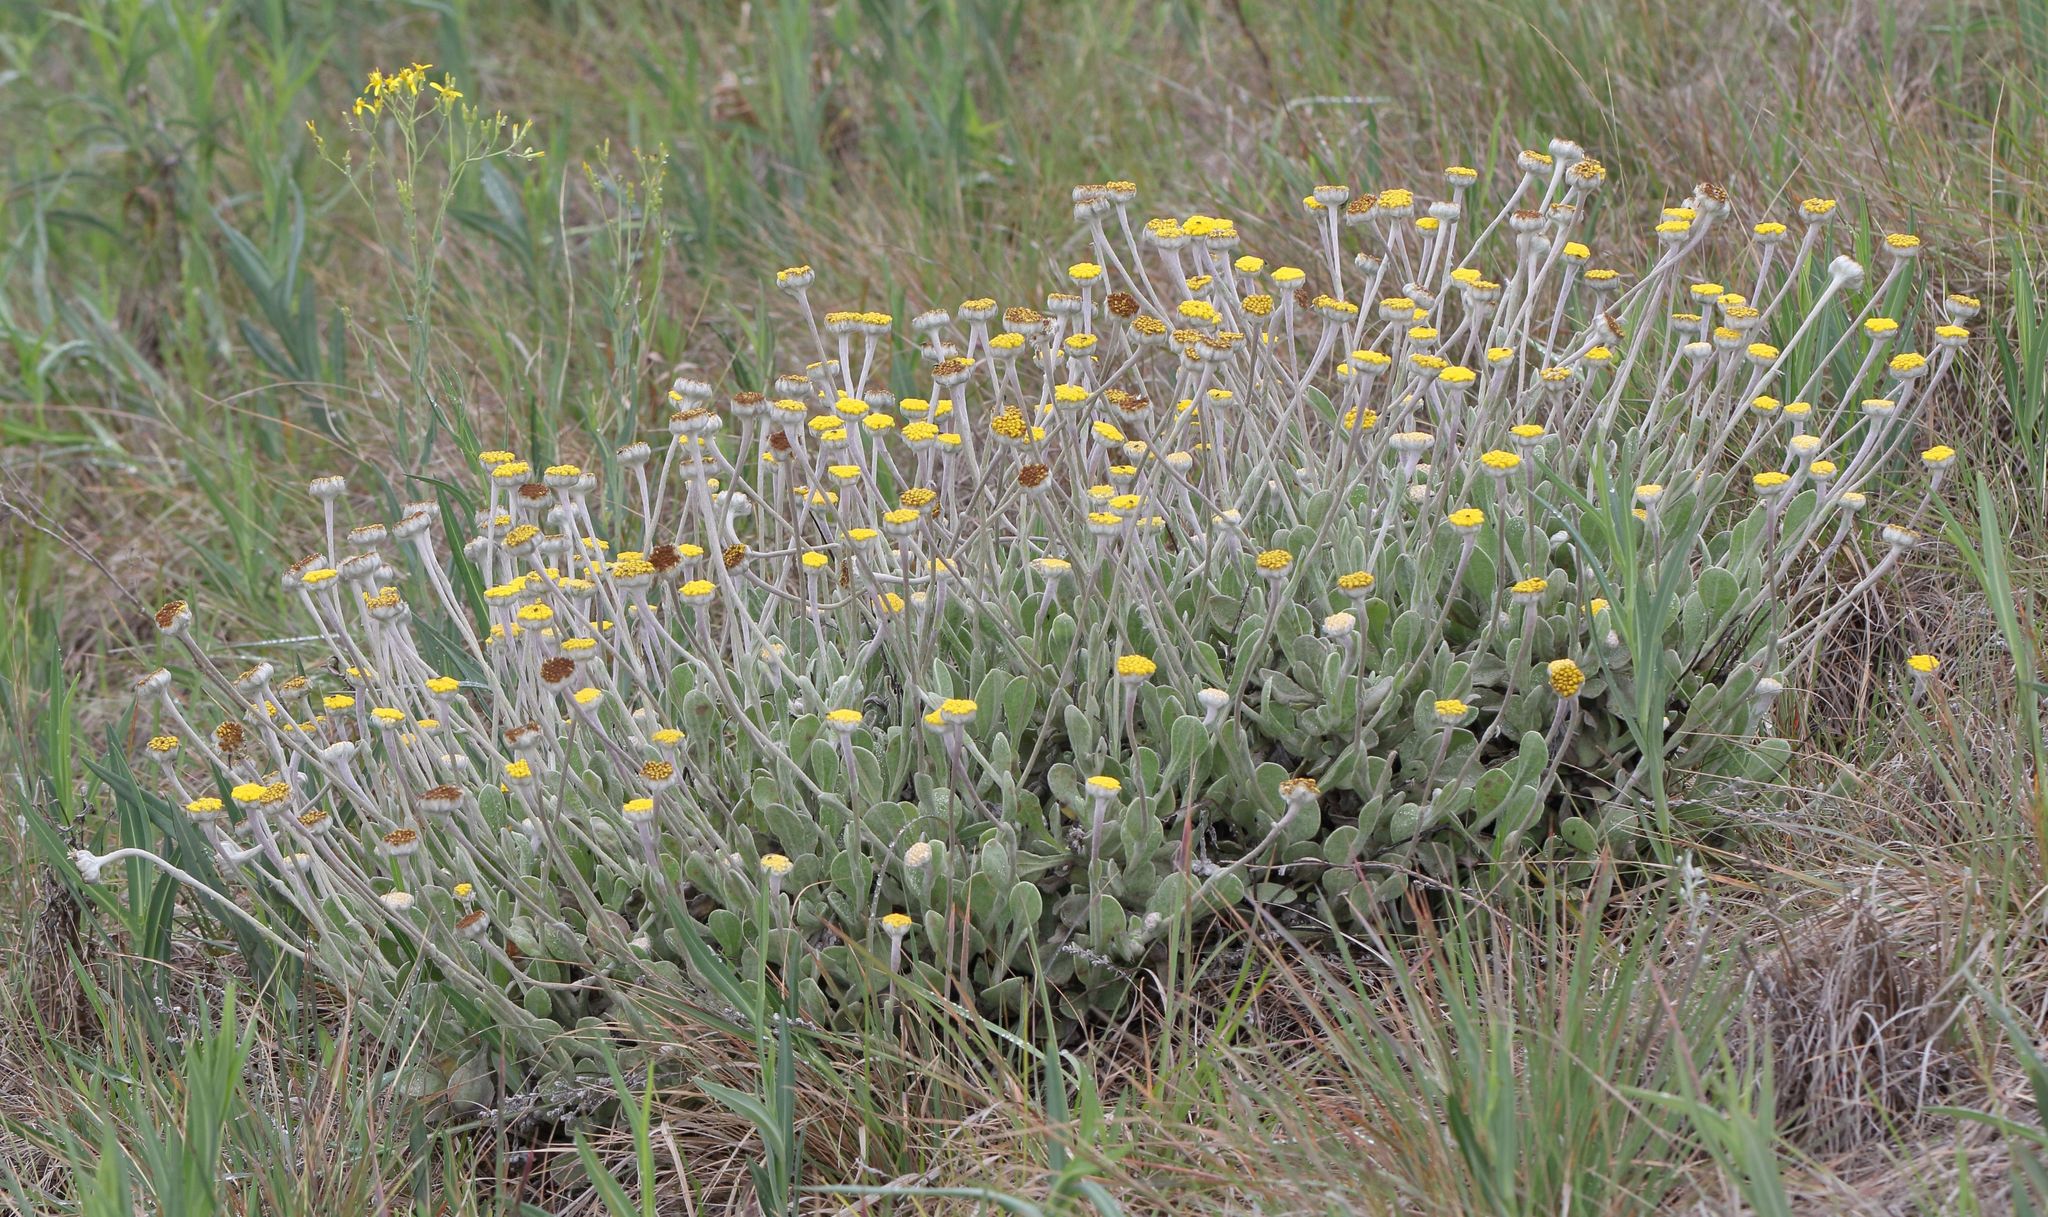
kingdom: Plantae
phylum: Tracheophyta
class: Magnoliopsida
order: Asterales
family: Asteraceae
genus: Helichrysum
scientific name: Helichrysum drakensbergense
